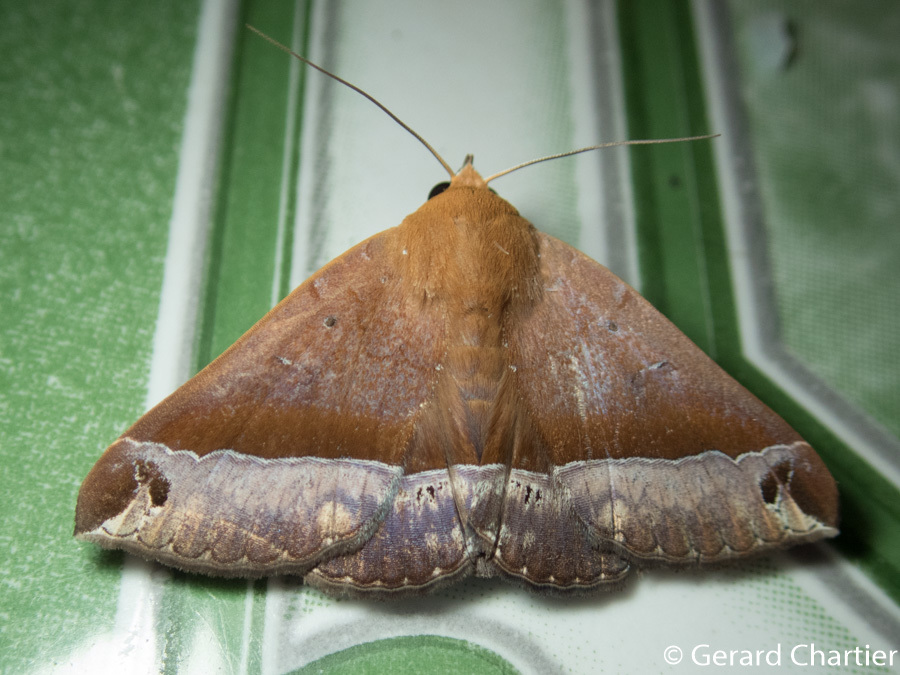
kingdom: Animalia
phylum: Arthropoda
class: Insecta
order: Lepidoptera
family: Erebidae
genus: Delgamma
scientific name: Delgamma pangonia
